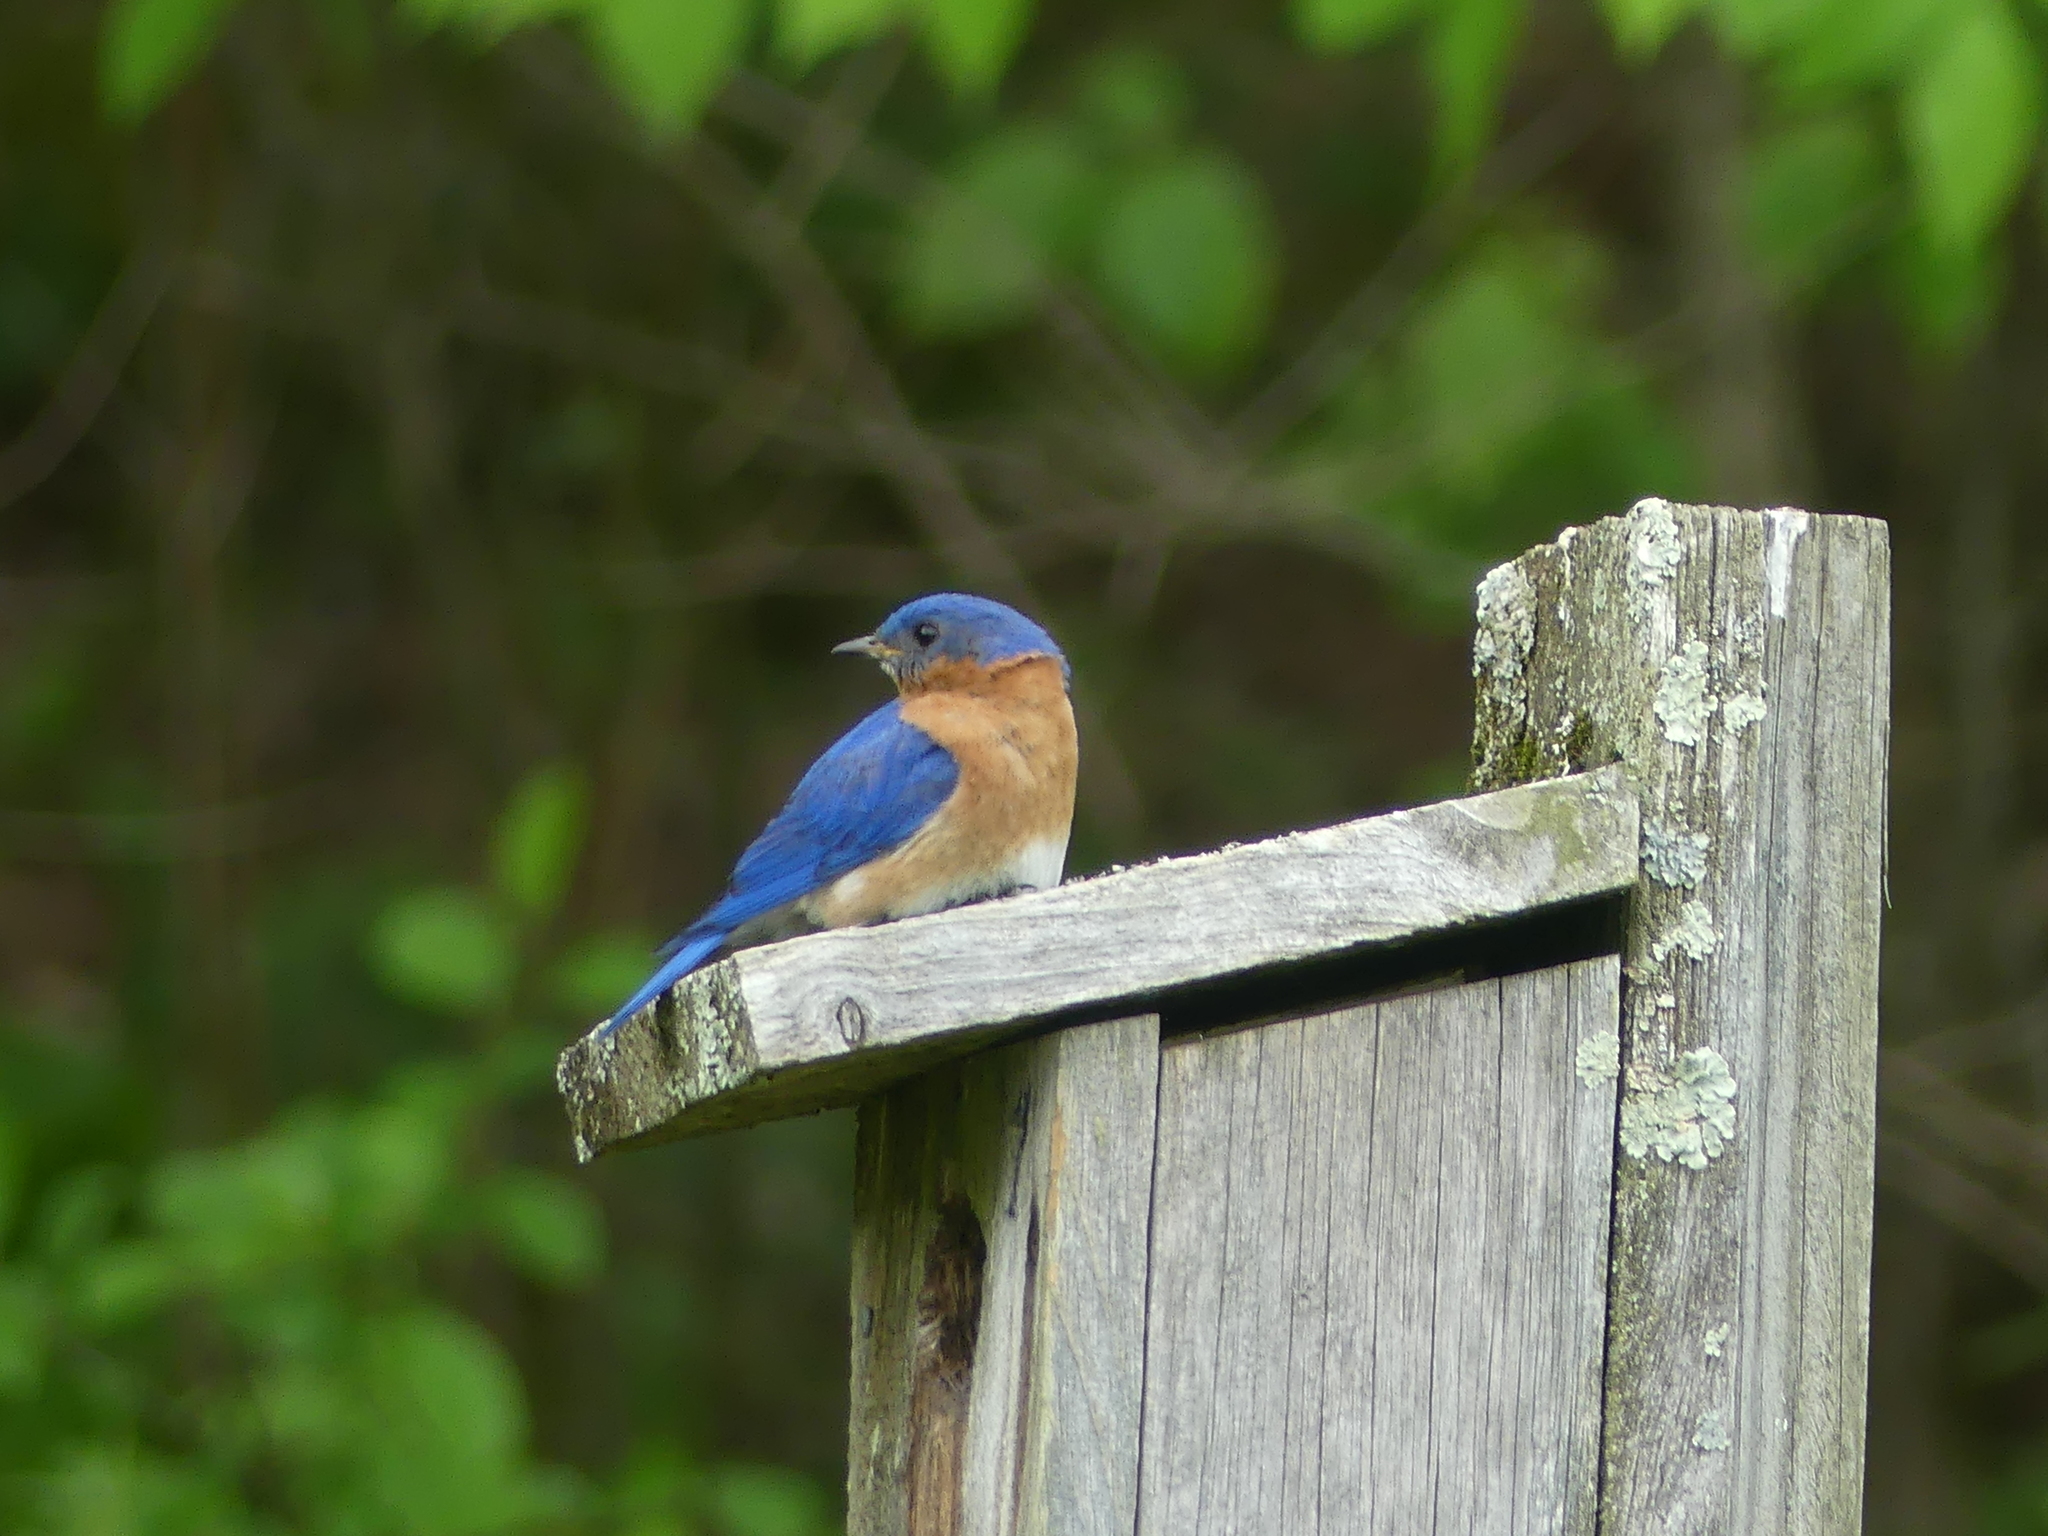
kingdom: Animalia
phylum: Chordata
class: Aves
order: Passeriformes
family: Turdidae
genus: Sialia
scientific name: Sialia sialis
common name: Eastern bluebird
